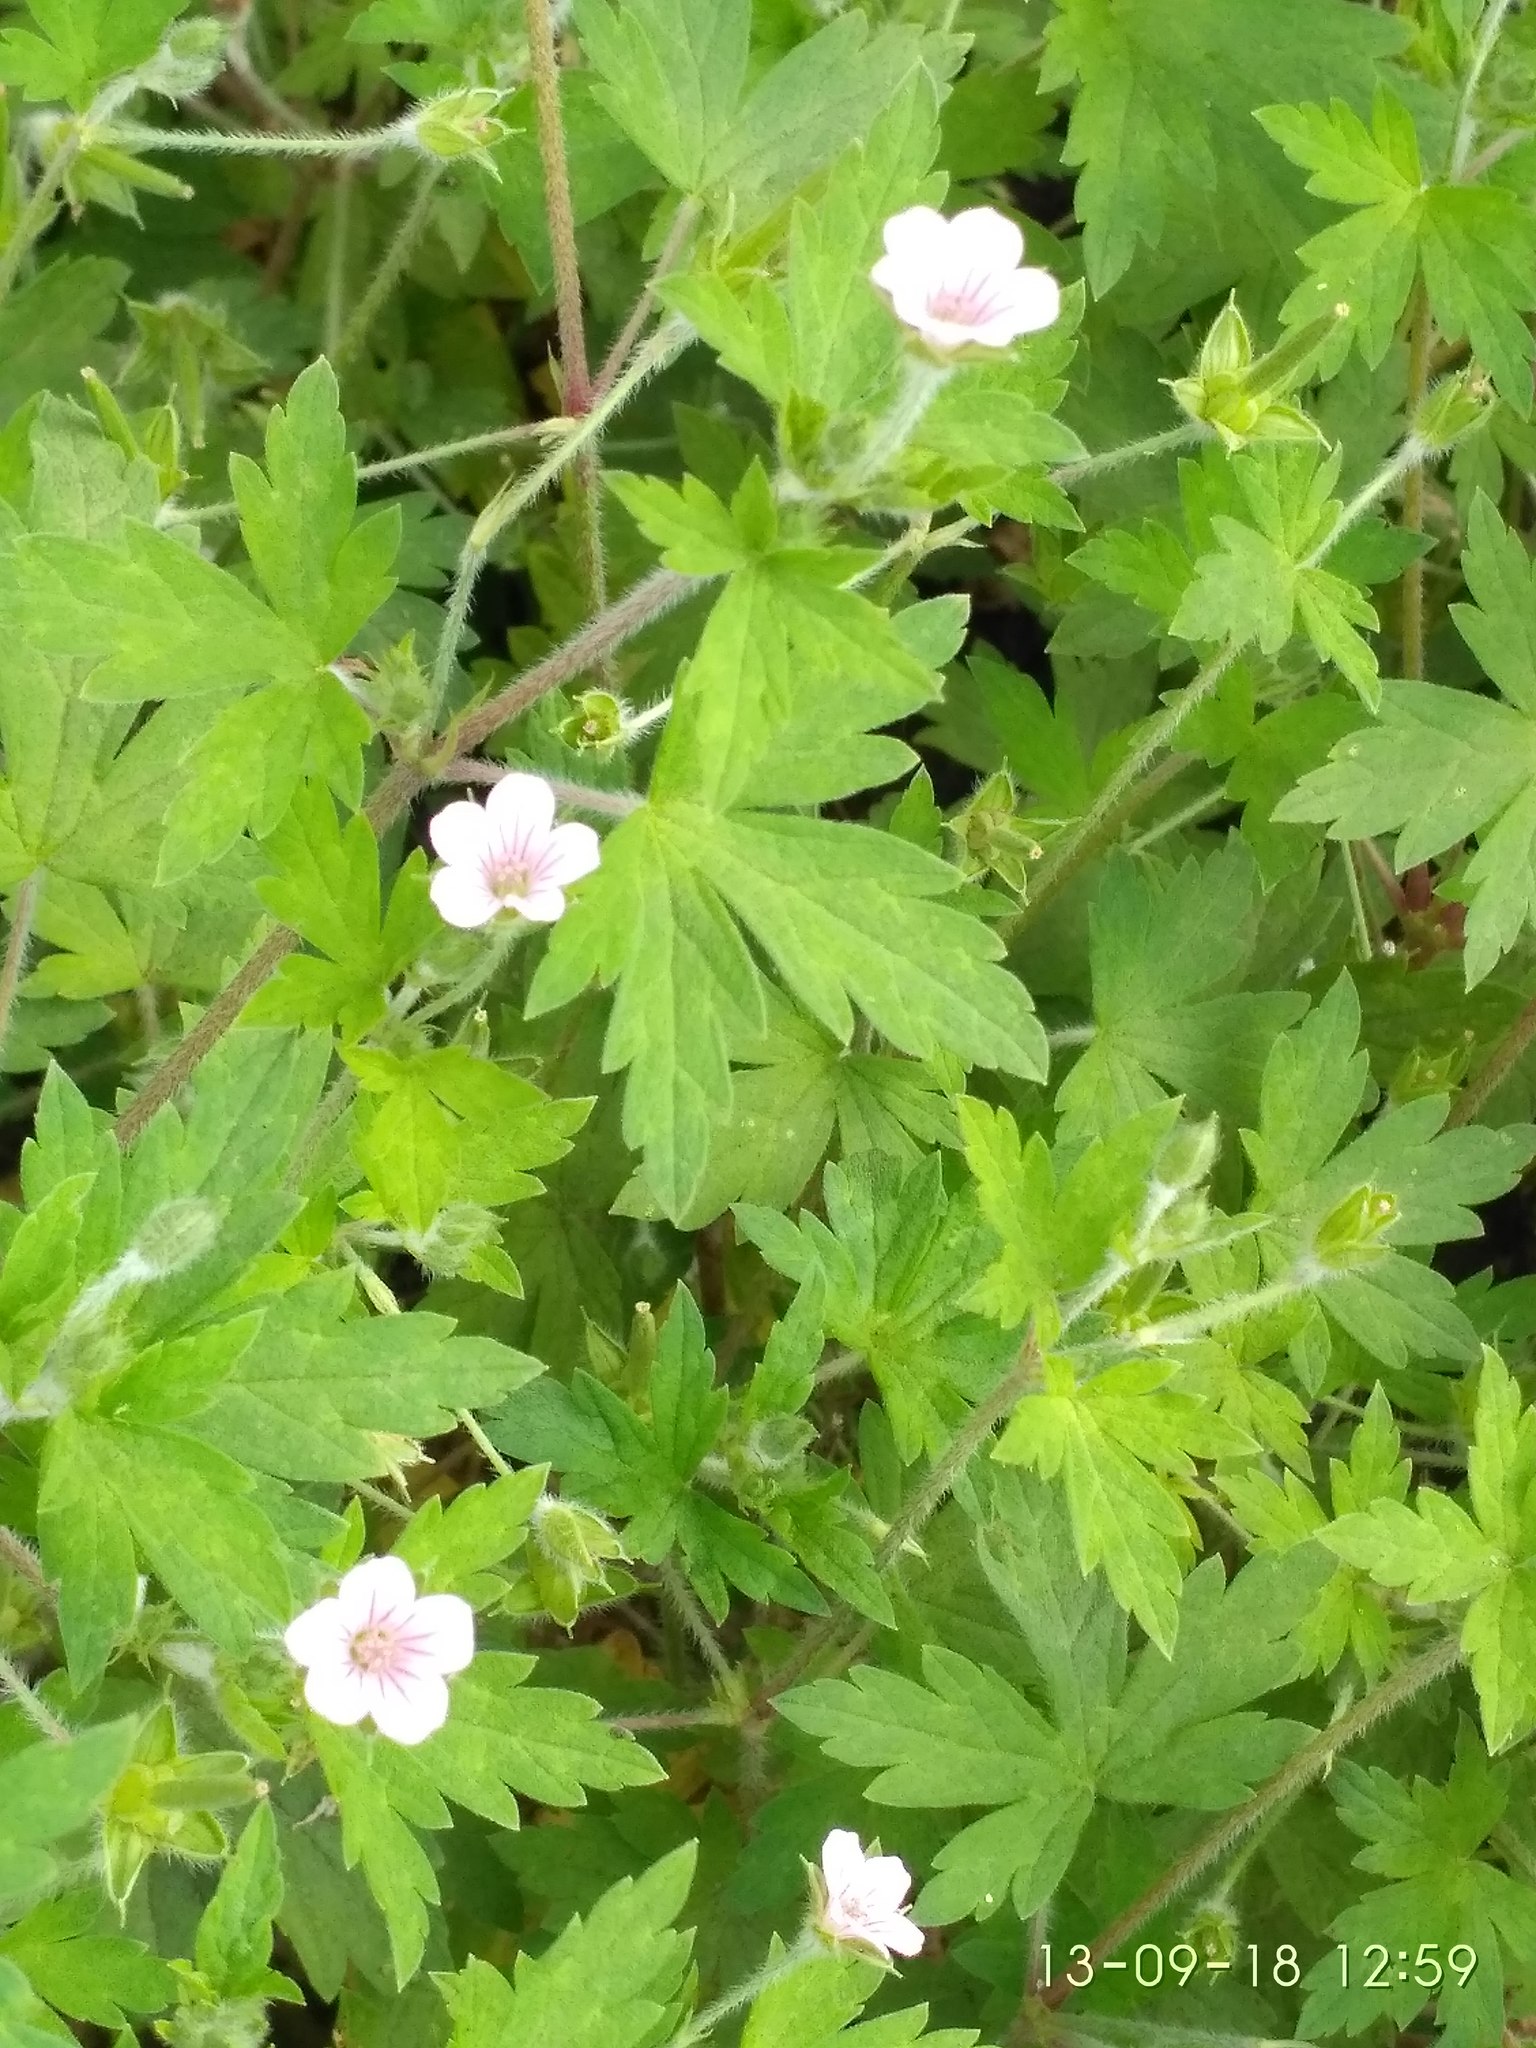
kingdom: Plantae
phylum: Tracheophyta
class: Magnoliopsida
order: Geraniales
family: Geraniaceae
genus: Geranium
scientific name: Geranium sibiricum
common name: Siberian crane's-bill
